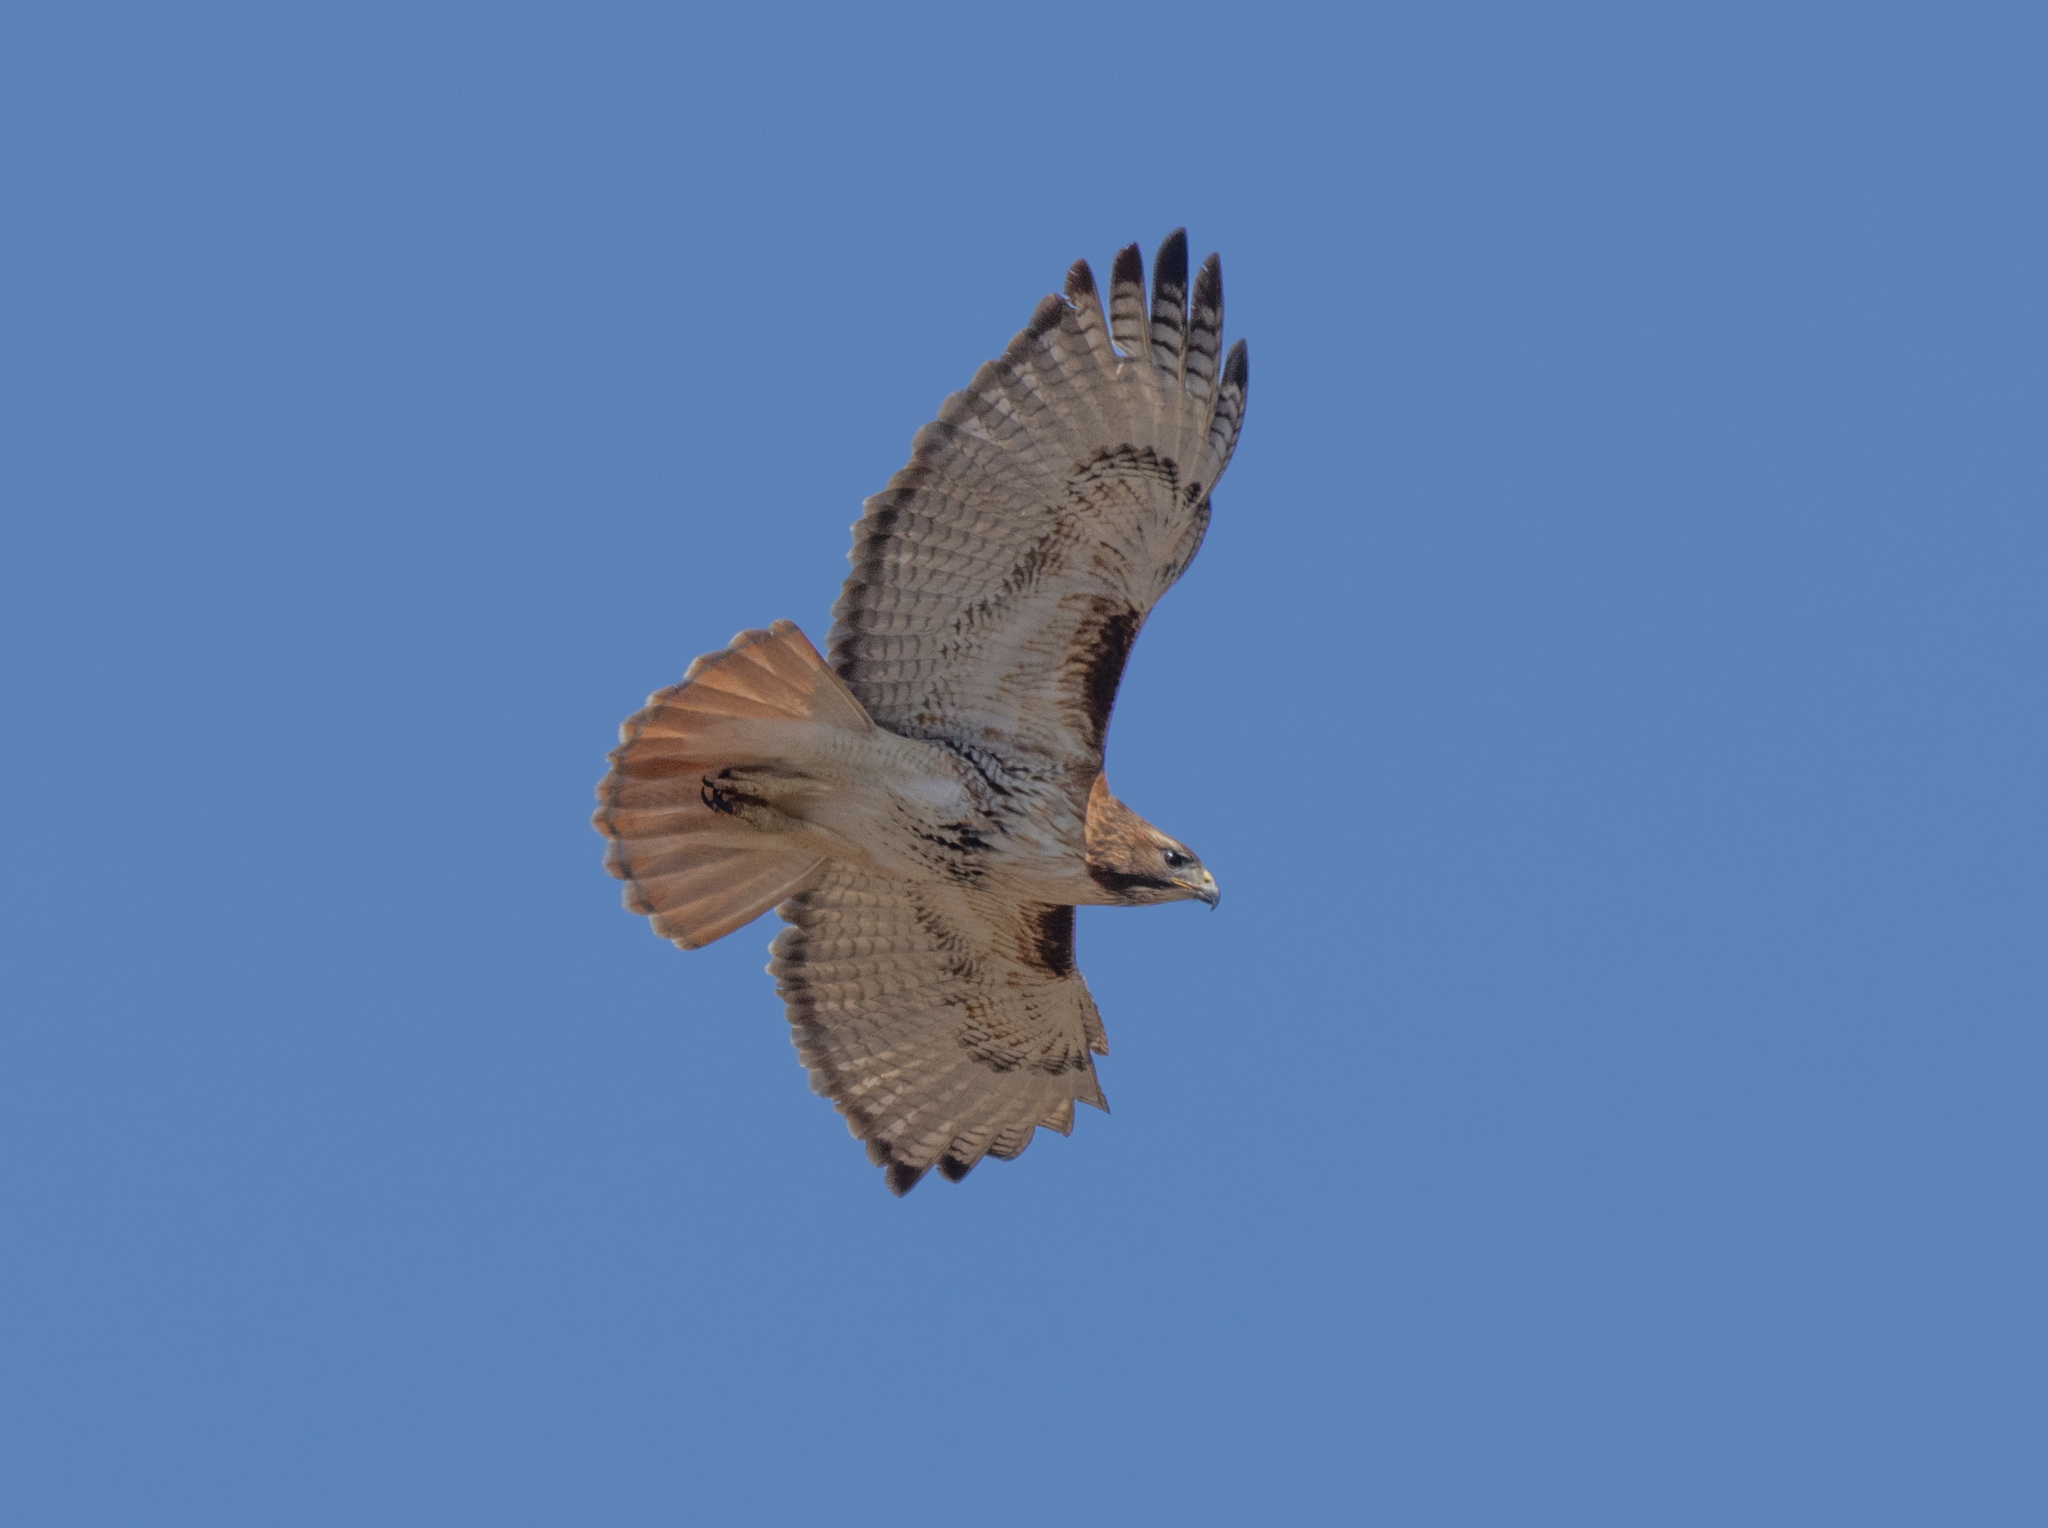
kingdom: Animalia
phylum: Chordata
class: Aves
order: Accipitriformes
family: Accipitridae
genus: Buteo
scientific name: Buteo jamaicensis
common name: Red-tailed hawk
